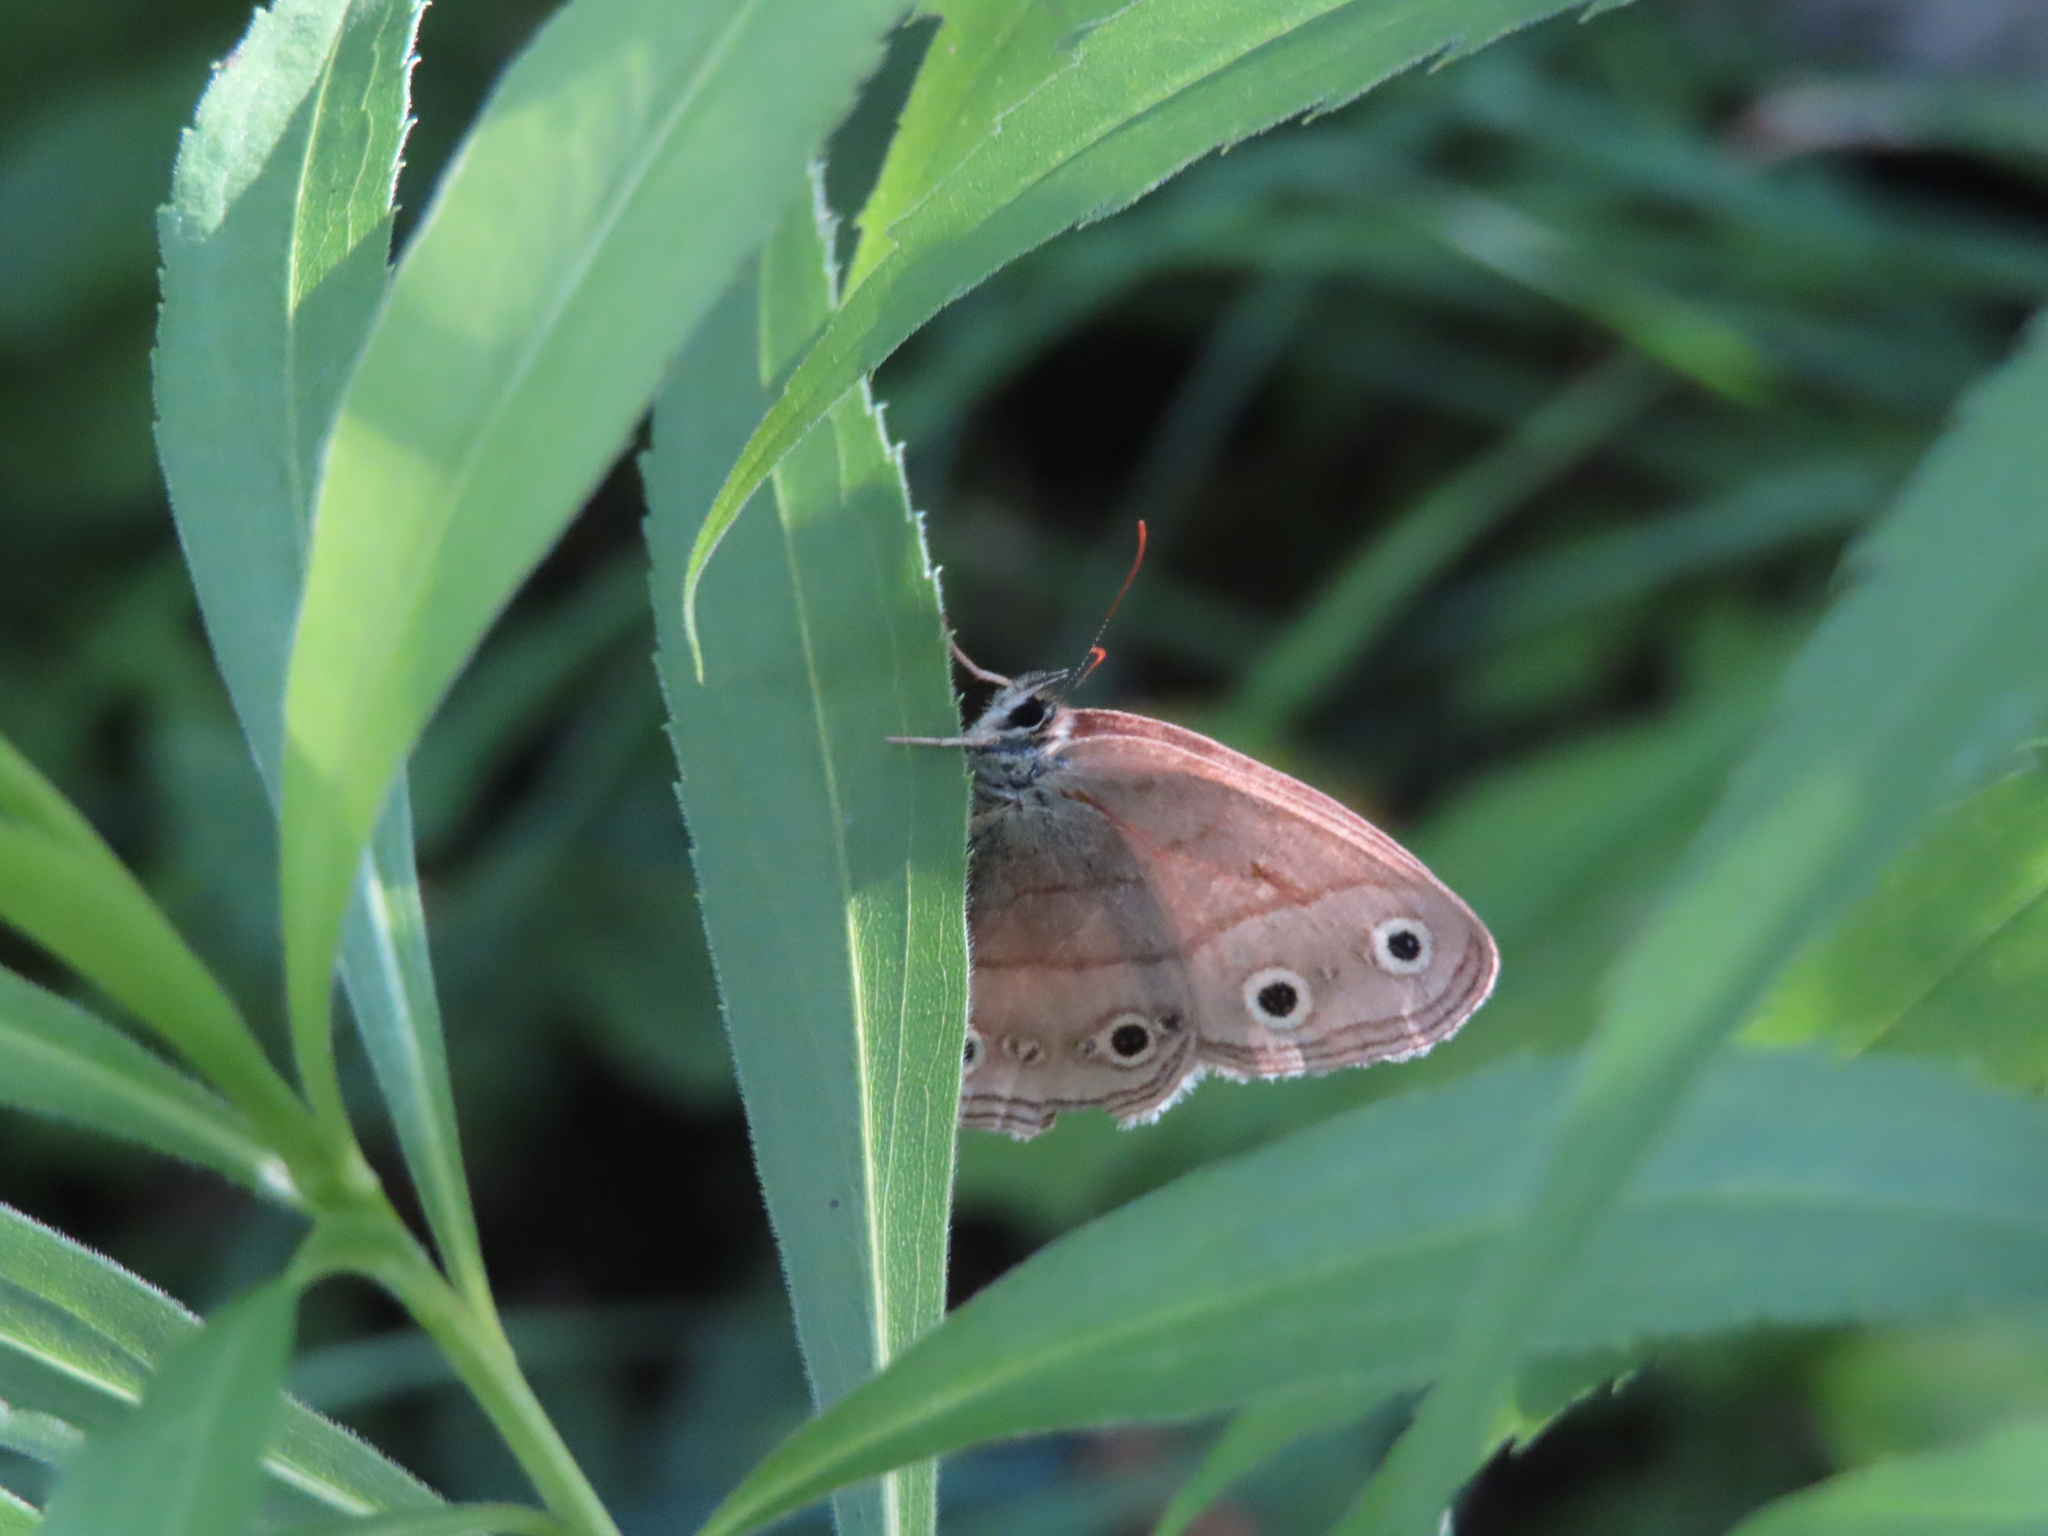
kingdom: Animalia
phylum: Arthropoda
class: Insecta
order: Lepidoptera
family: Nymphalidae
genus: Euptychia
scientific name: Euptychia cymela
